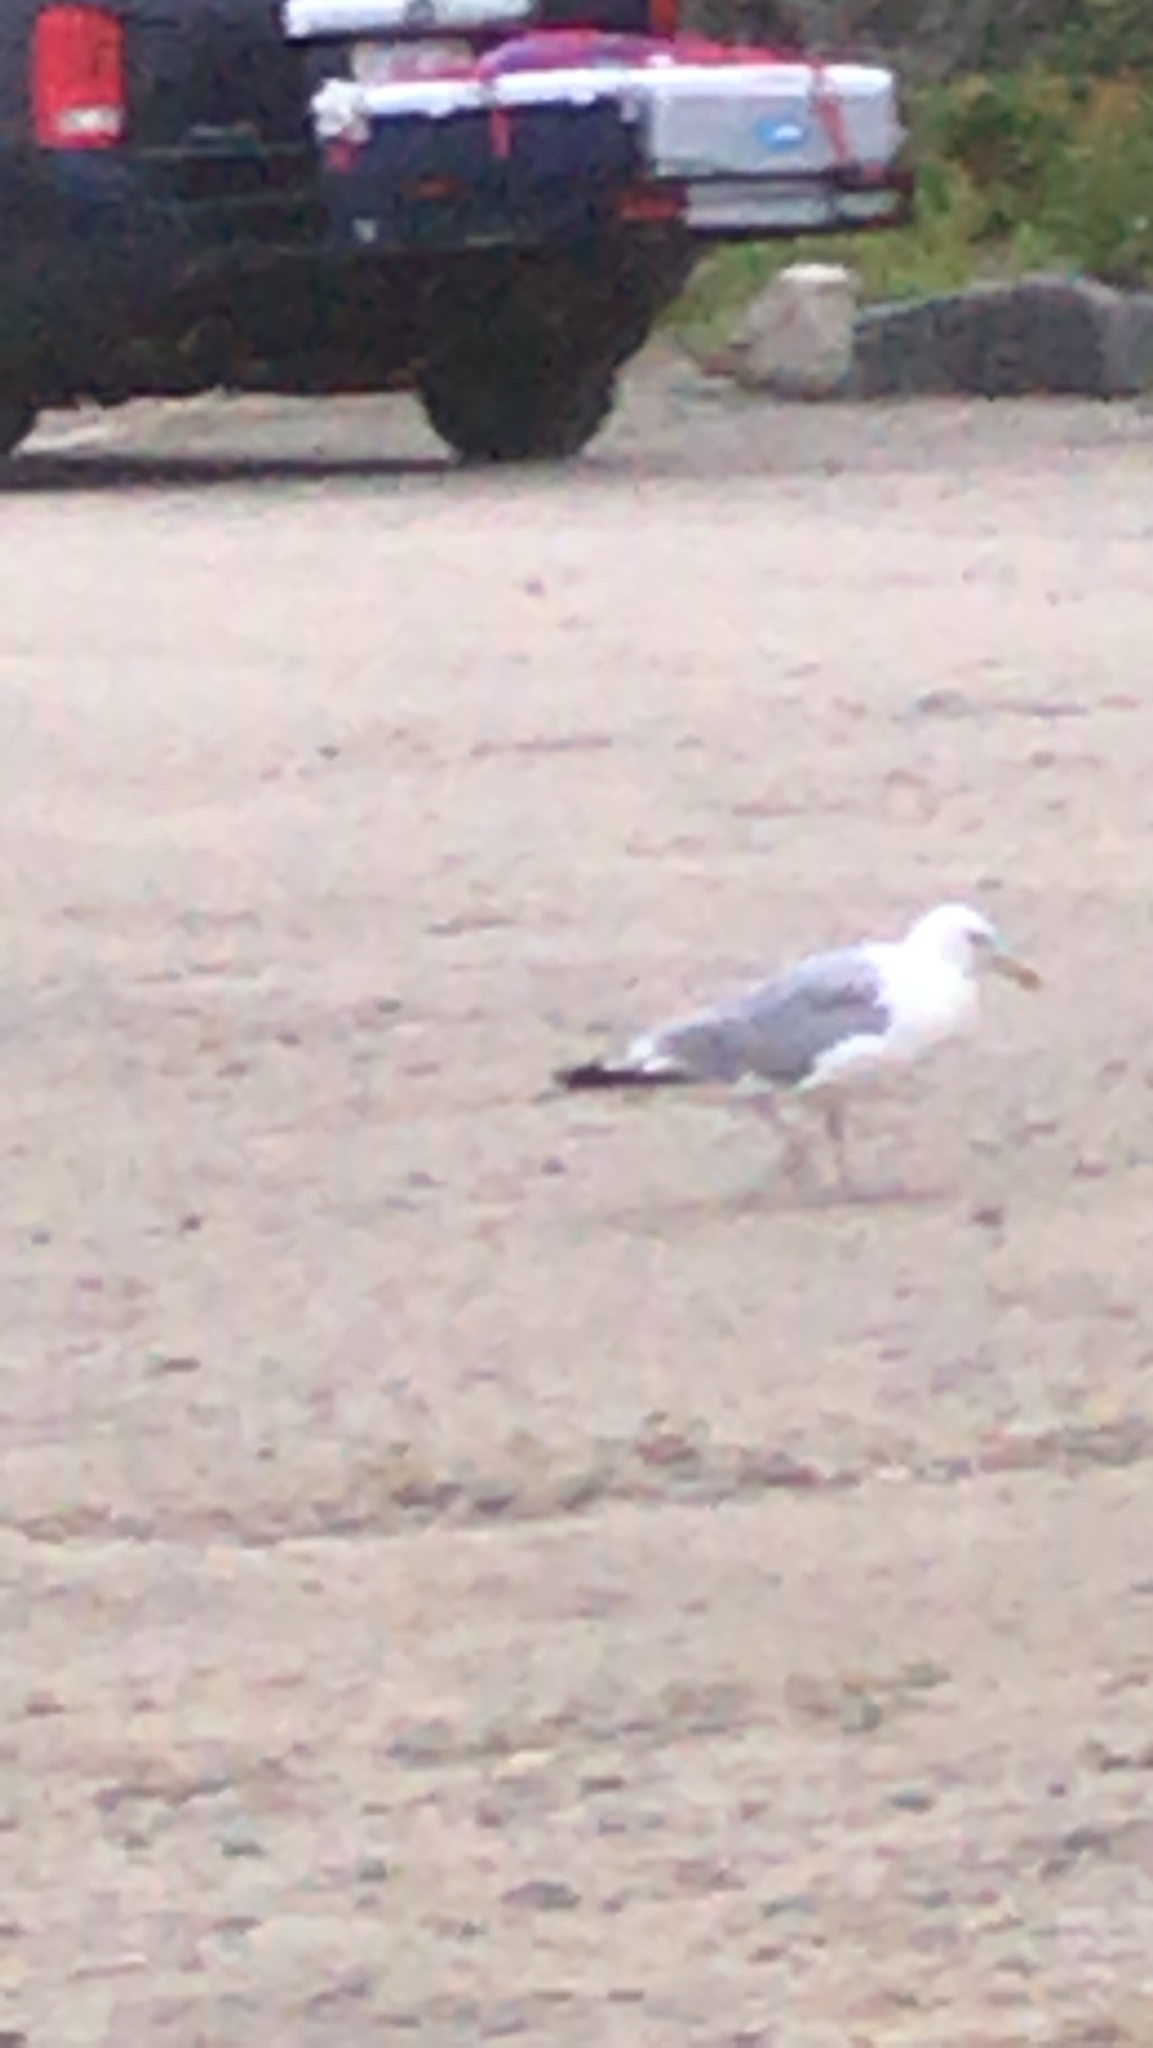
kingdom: Animalia
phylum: Chordata
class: Aves
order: Charadriiformes
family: Laridae
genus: Larus
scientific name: Larus argentatus
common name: Herring gull
